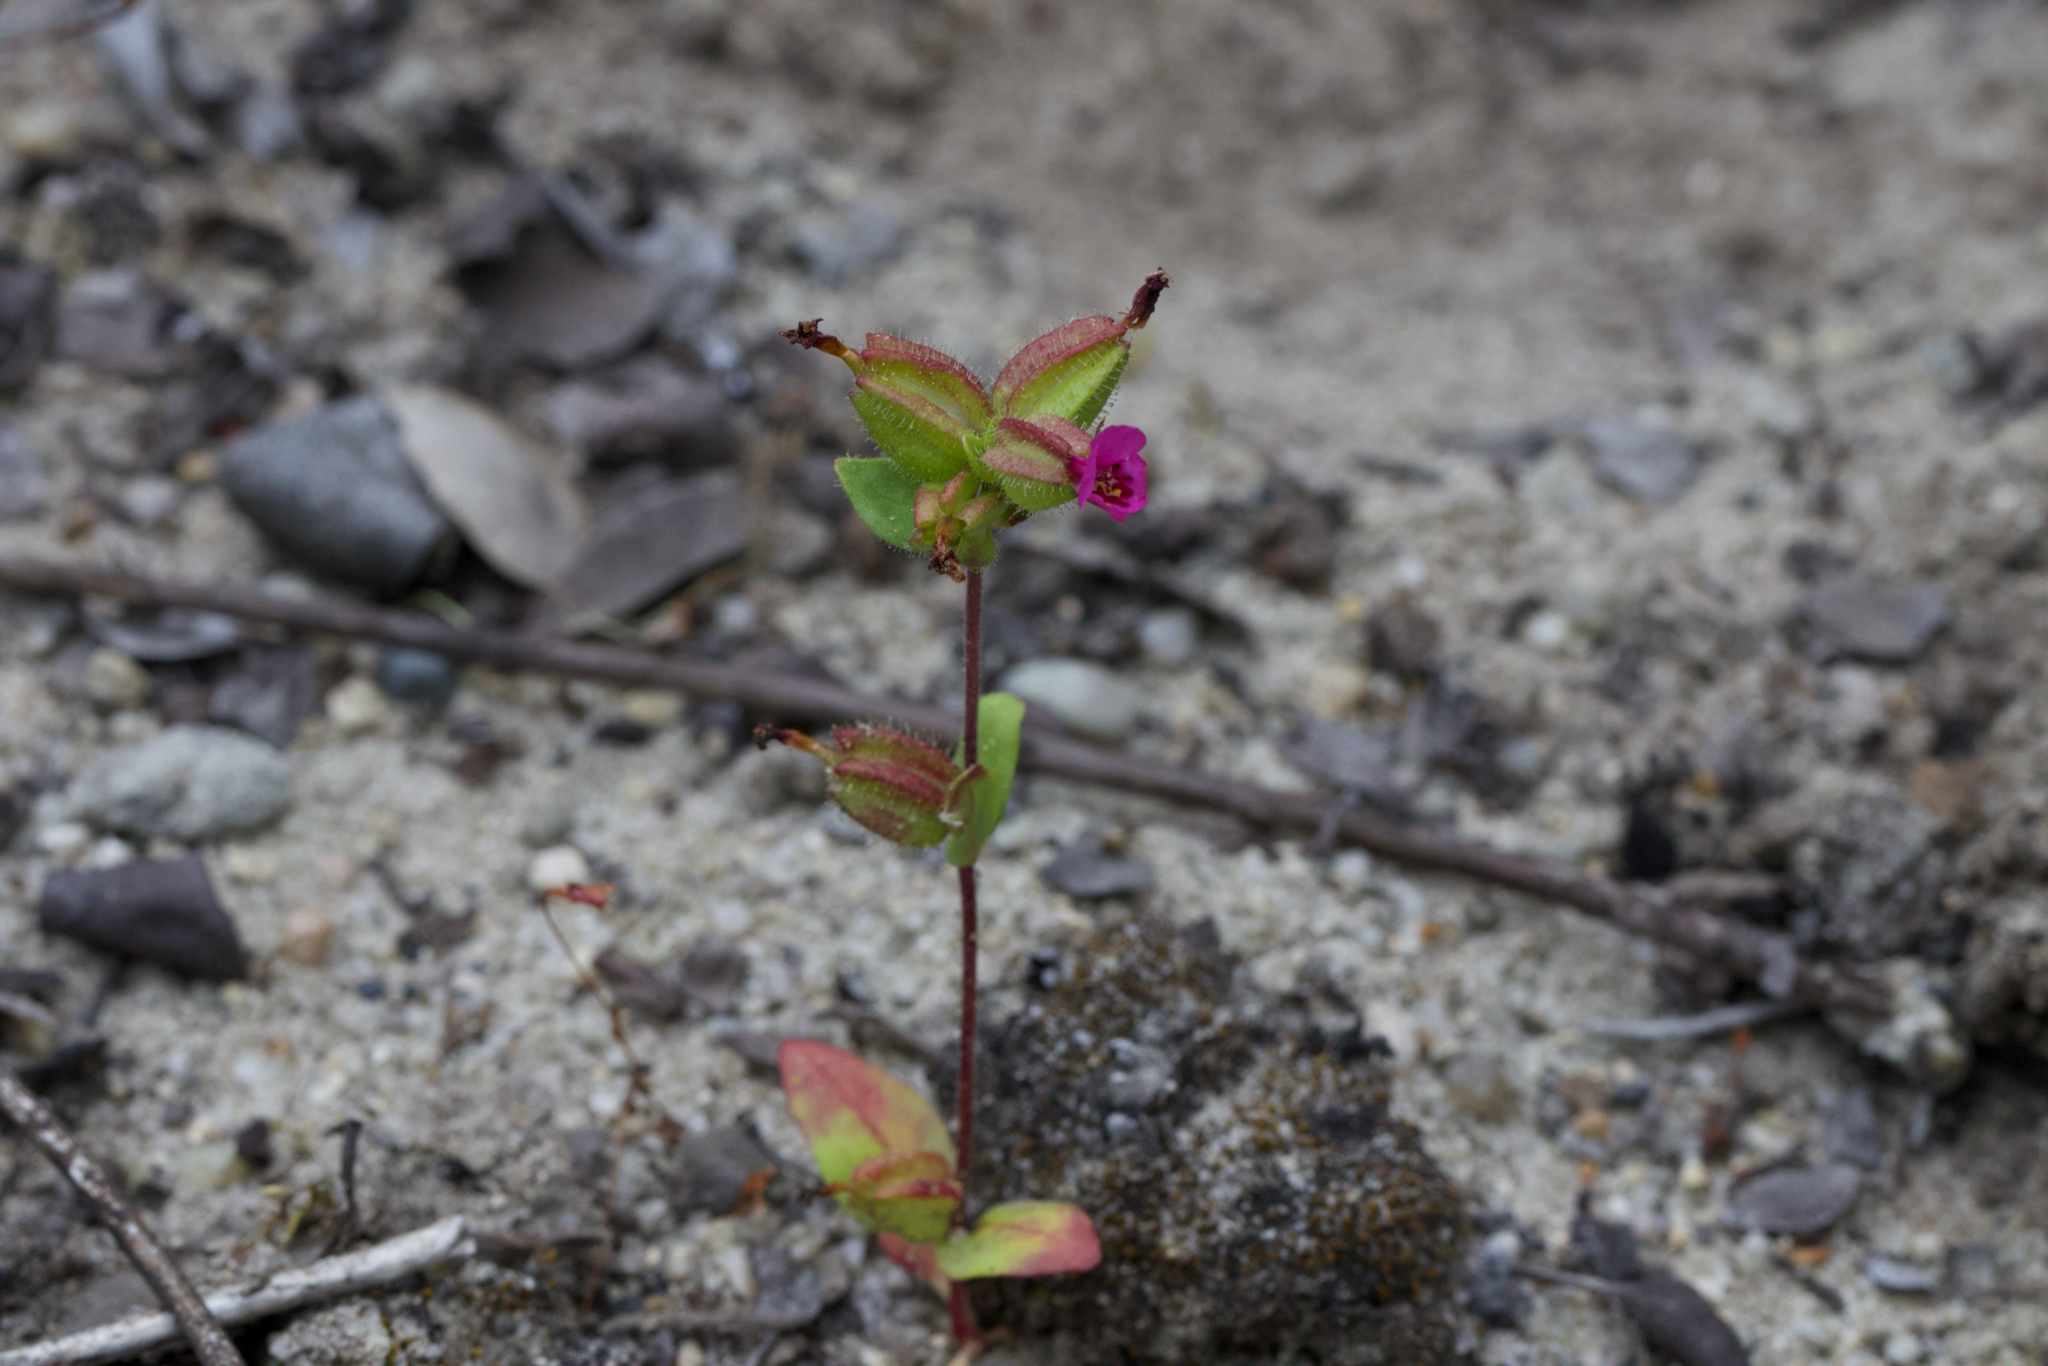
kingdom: Plantae
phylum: Tracheophyta
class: Magnoliopsida
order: Lamiales
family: Phrymaceae
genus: Diplacus
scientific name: Diplacus rattanii
